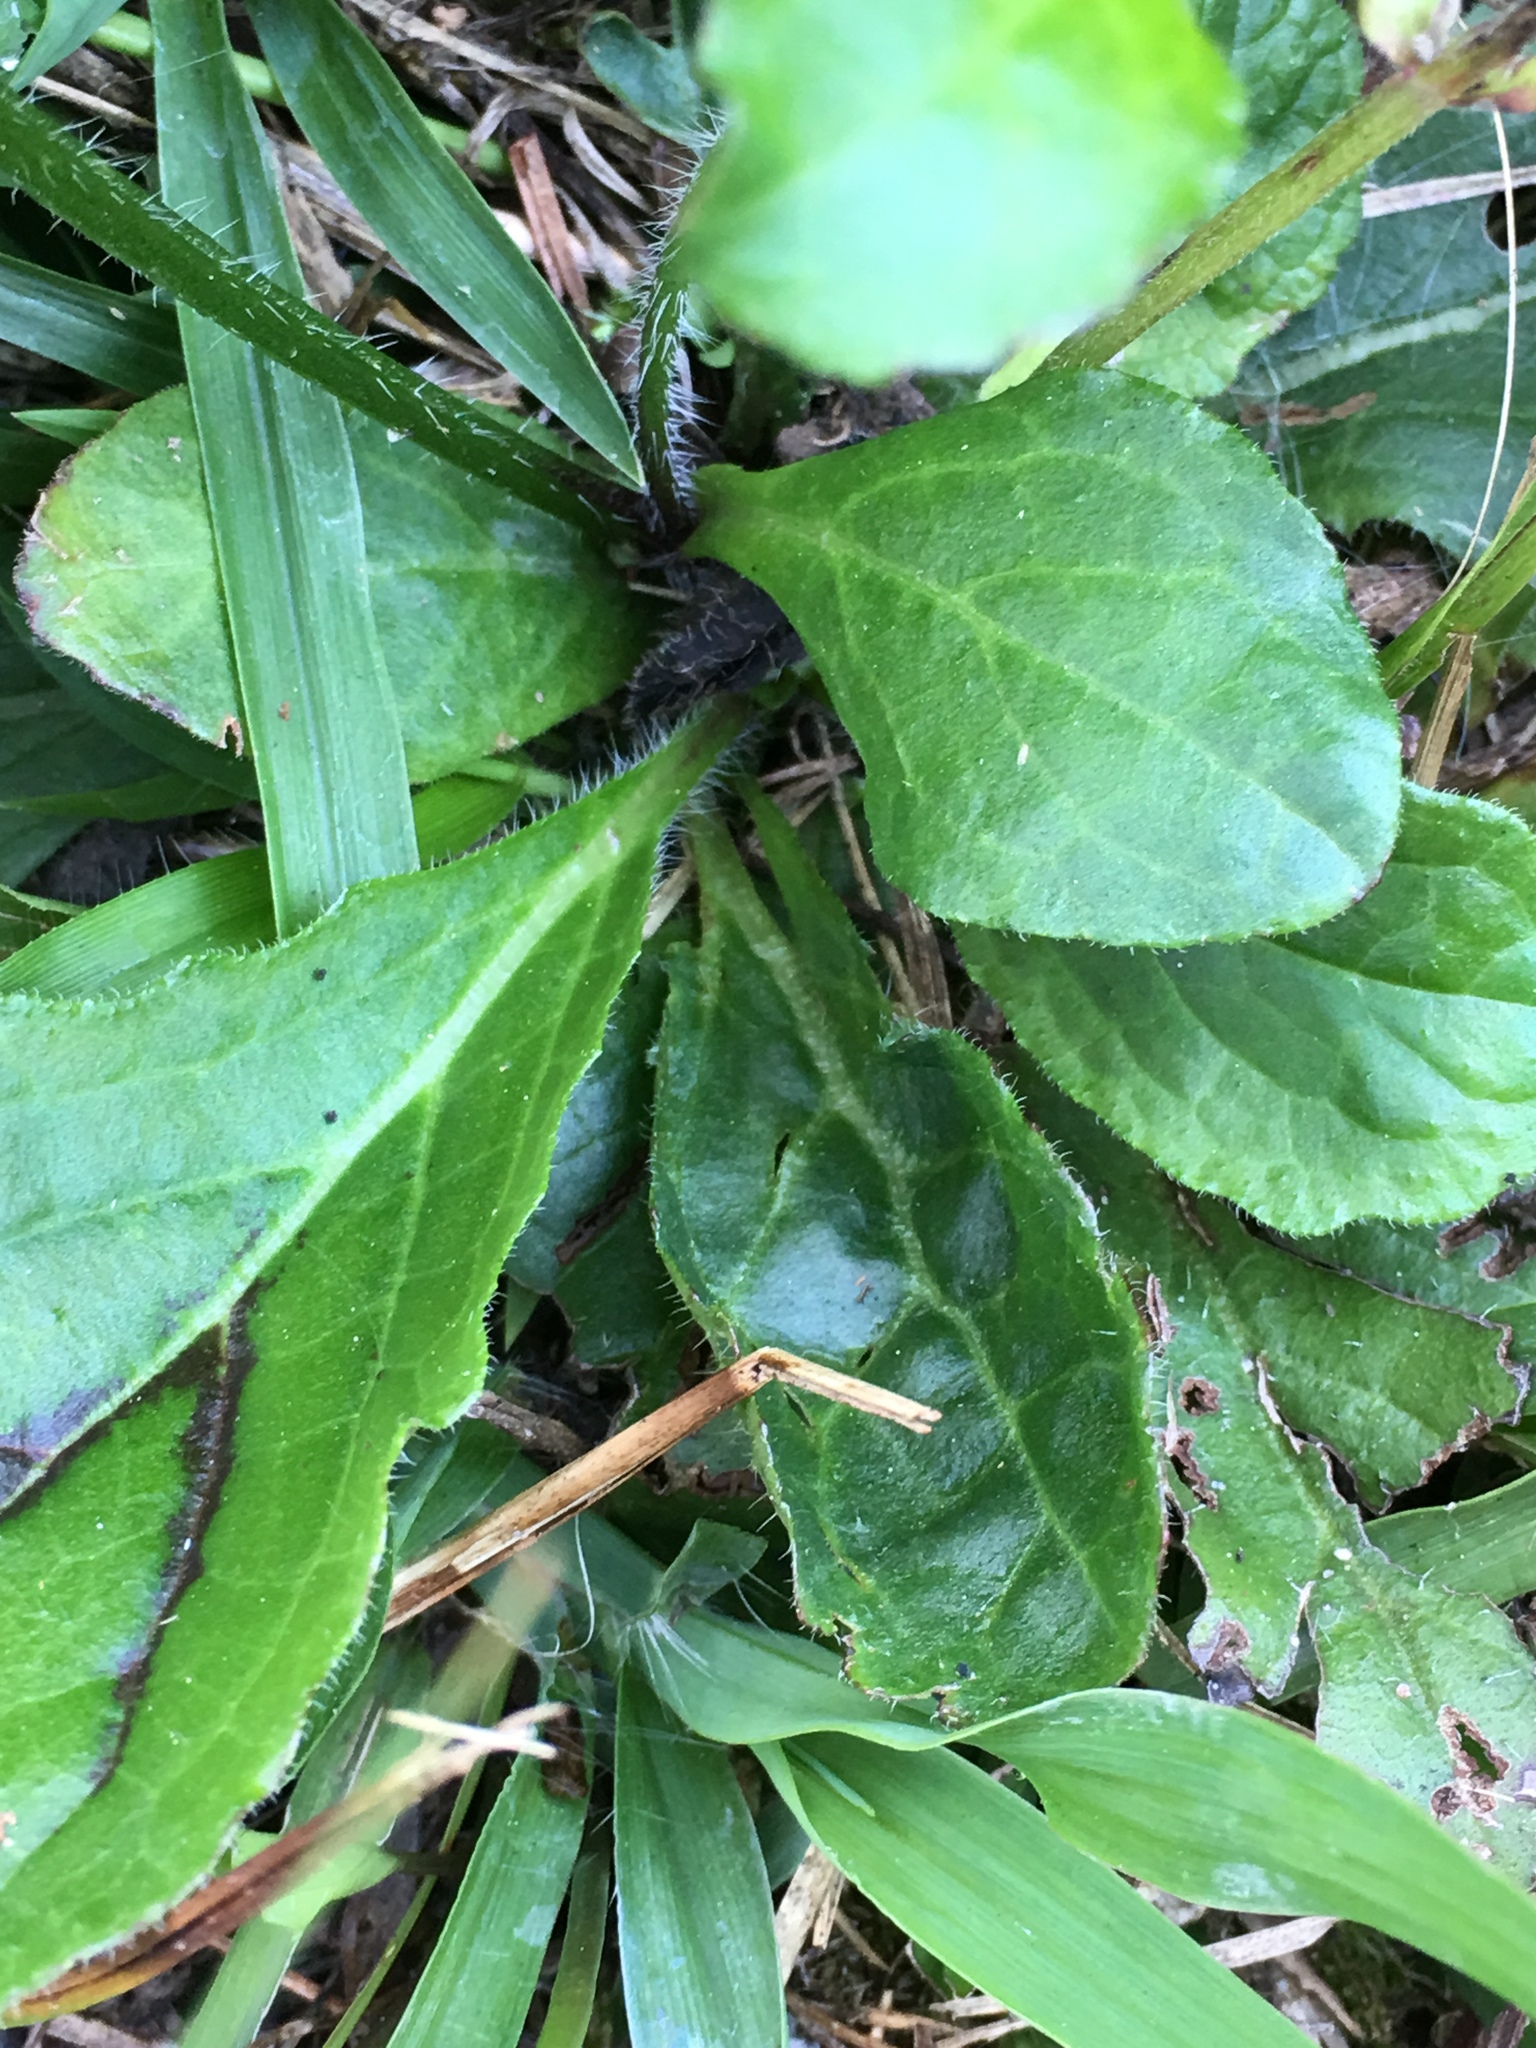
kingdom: Plantae
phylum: Tracheophyta
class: Magnoliopsida
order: Lamiales
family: Lamiaceae
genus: Salvia
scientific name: Salvia lyrata
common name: Cancerweed
